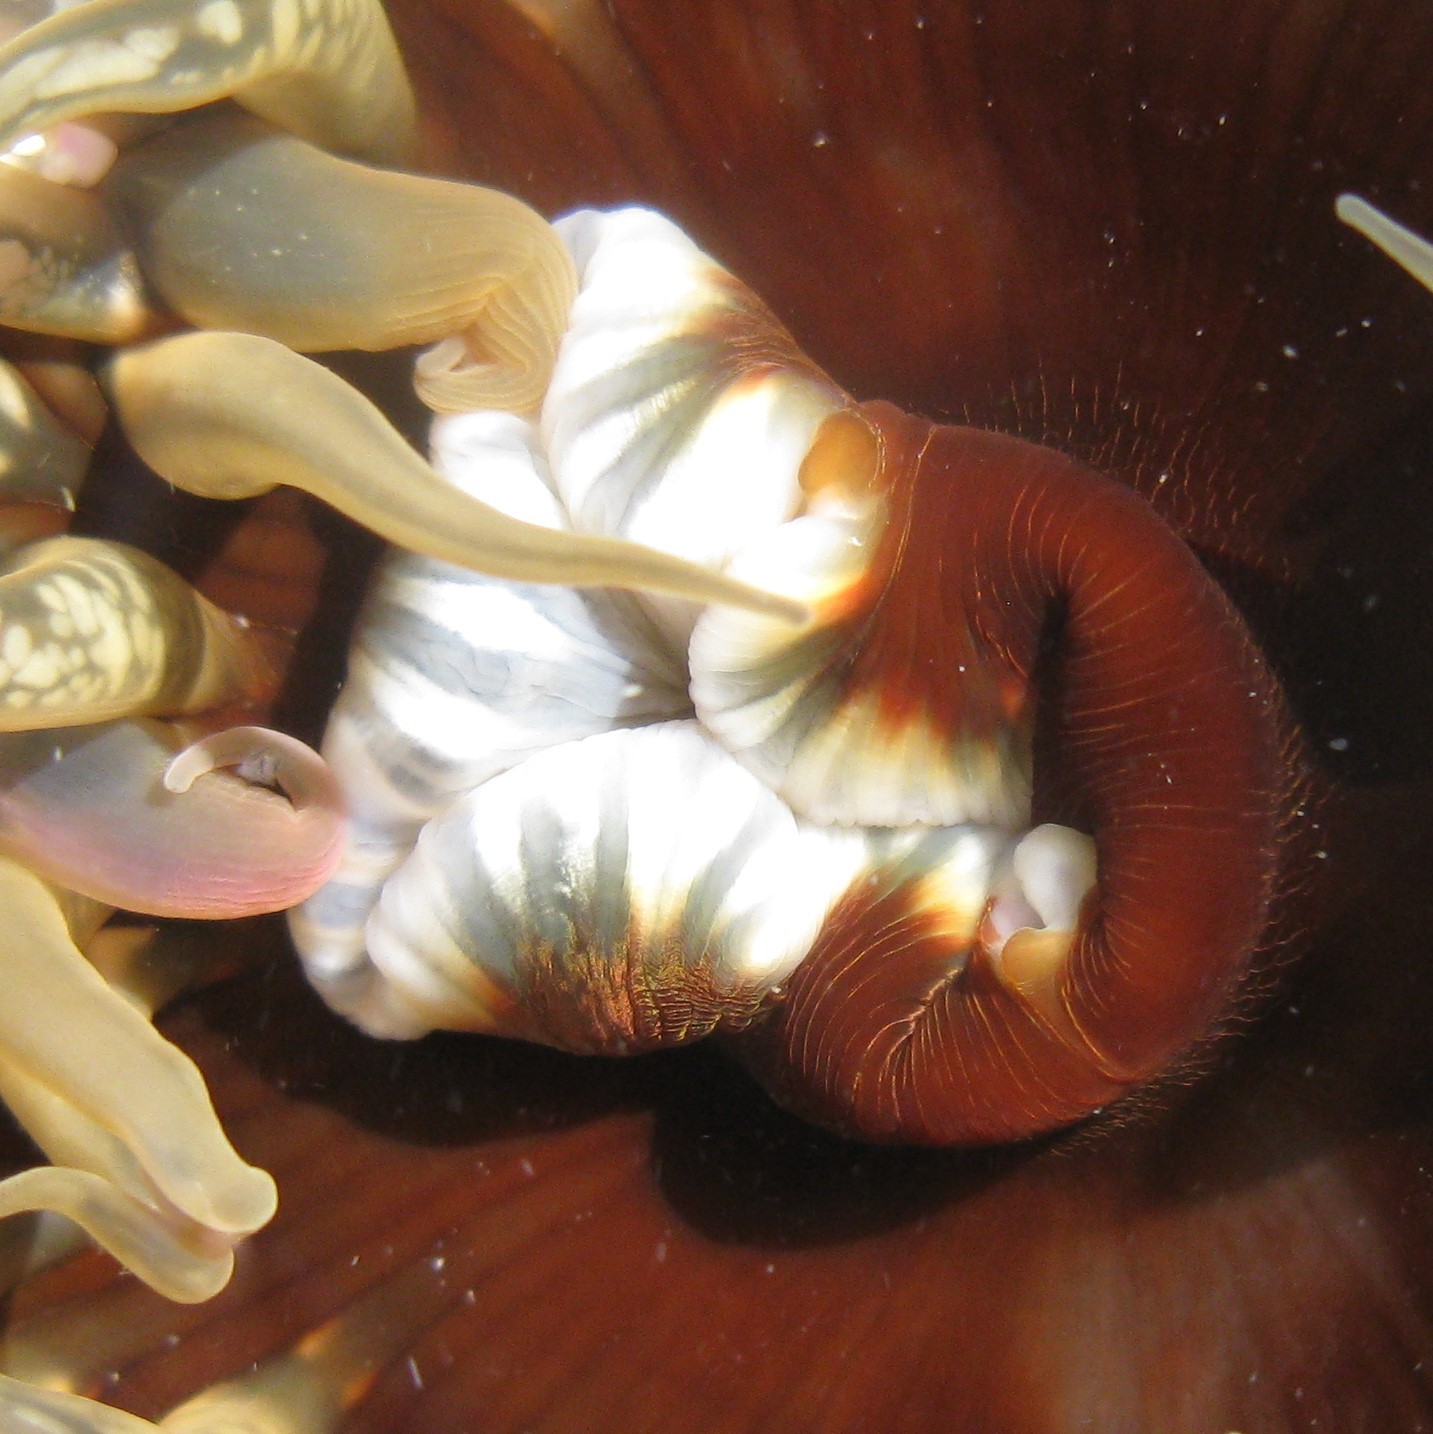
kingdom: Animalia
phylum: Cnidaria
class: Anthozoa
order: Actiniaria
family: Actiniidae
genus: Oulactis
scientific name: Oulactis muscosa
